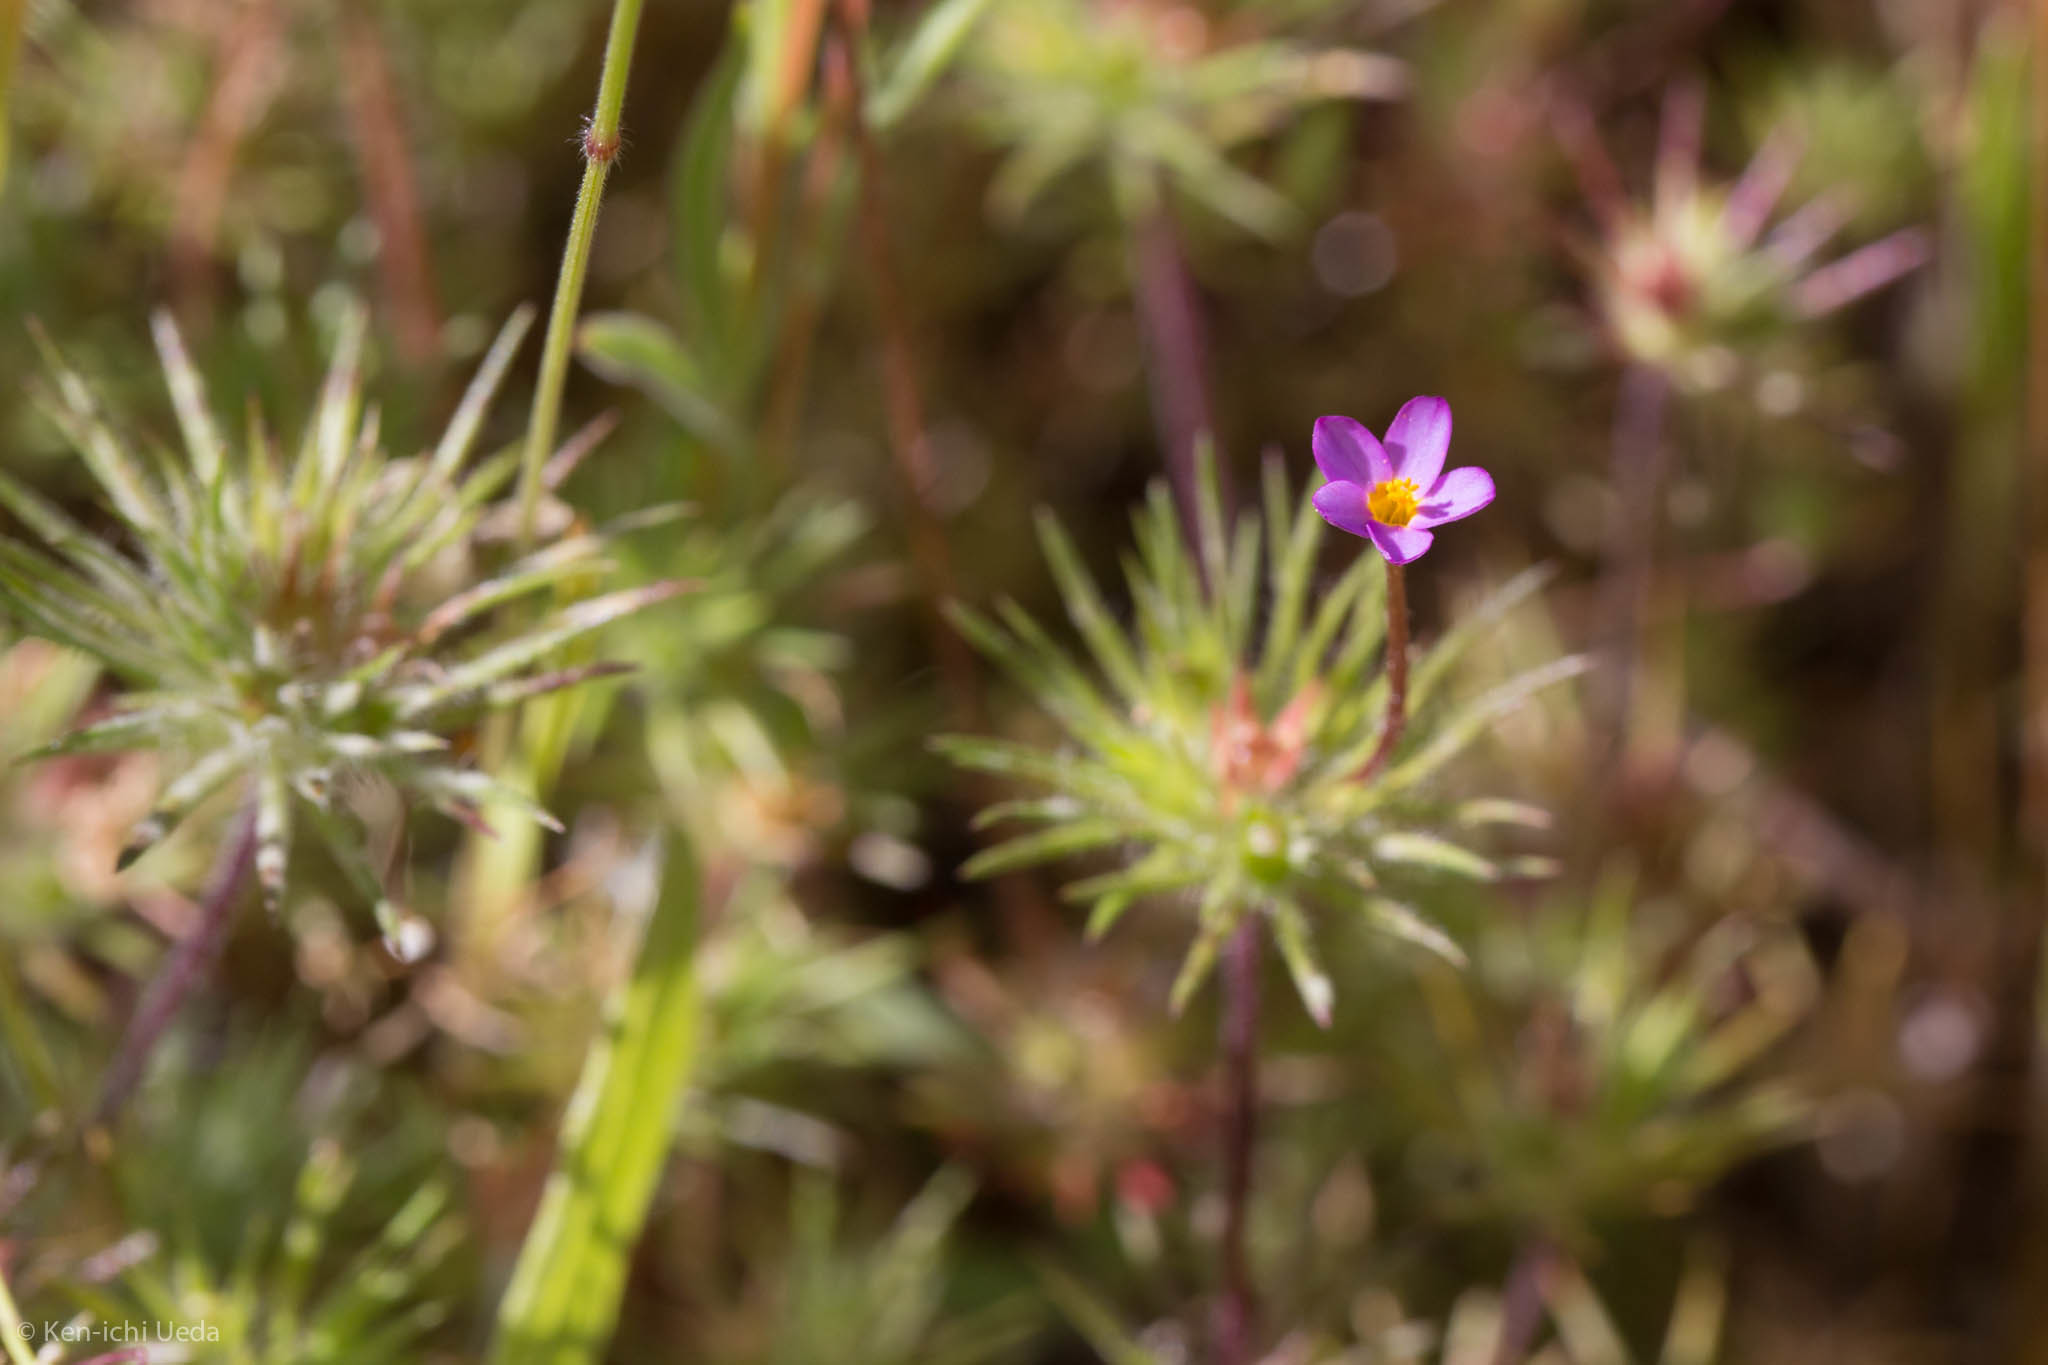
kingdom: Plantae
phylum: Tracheophyta
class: Magnoliopsida
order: Ericales
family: Polemoniaceae
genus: Leptosiphon
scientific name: Leptosiphon bicolor
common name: True babystars
